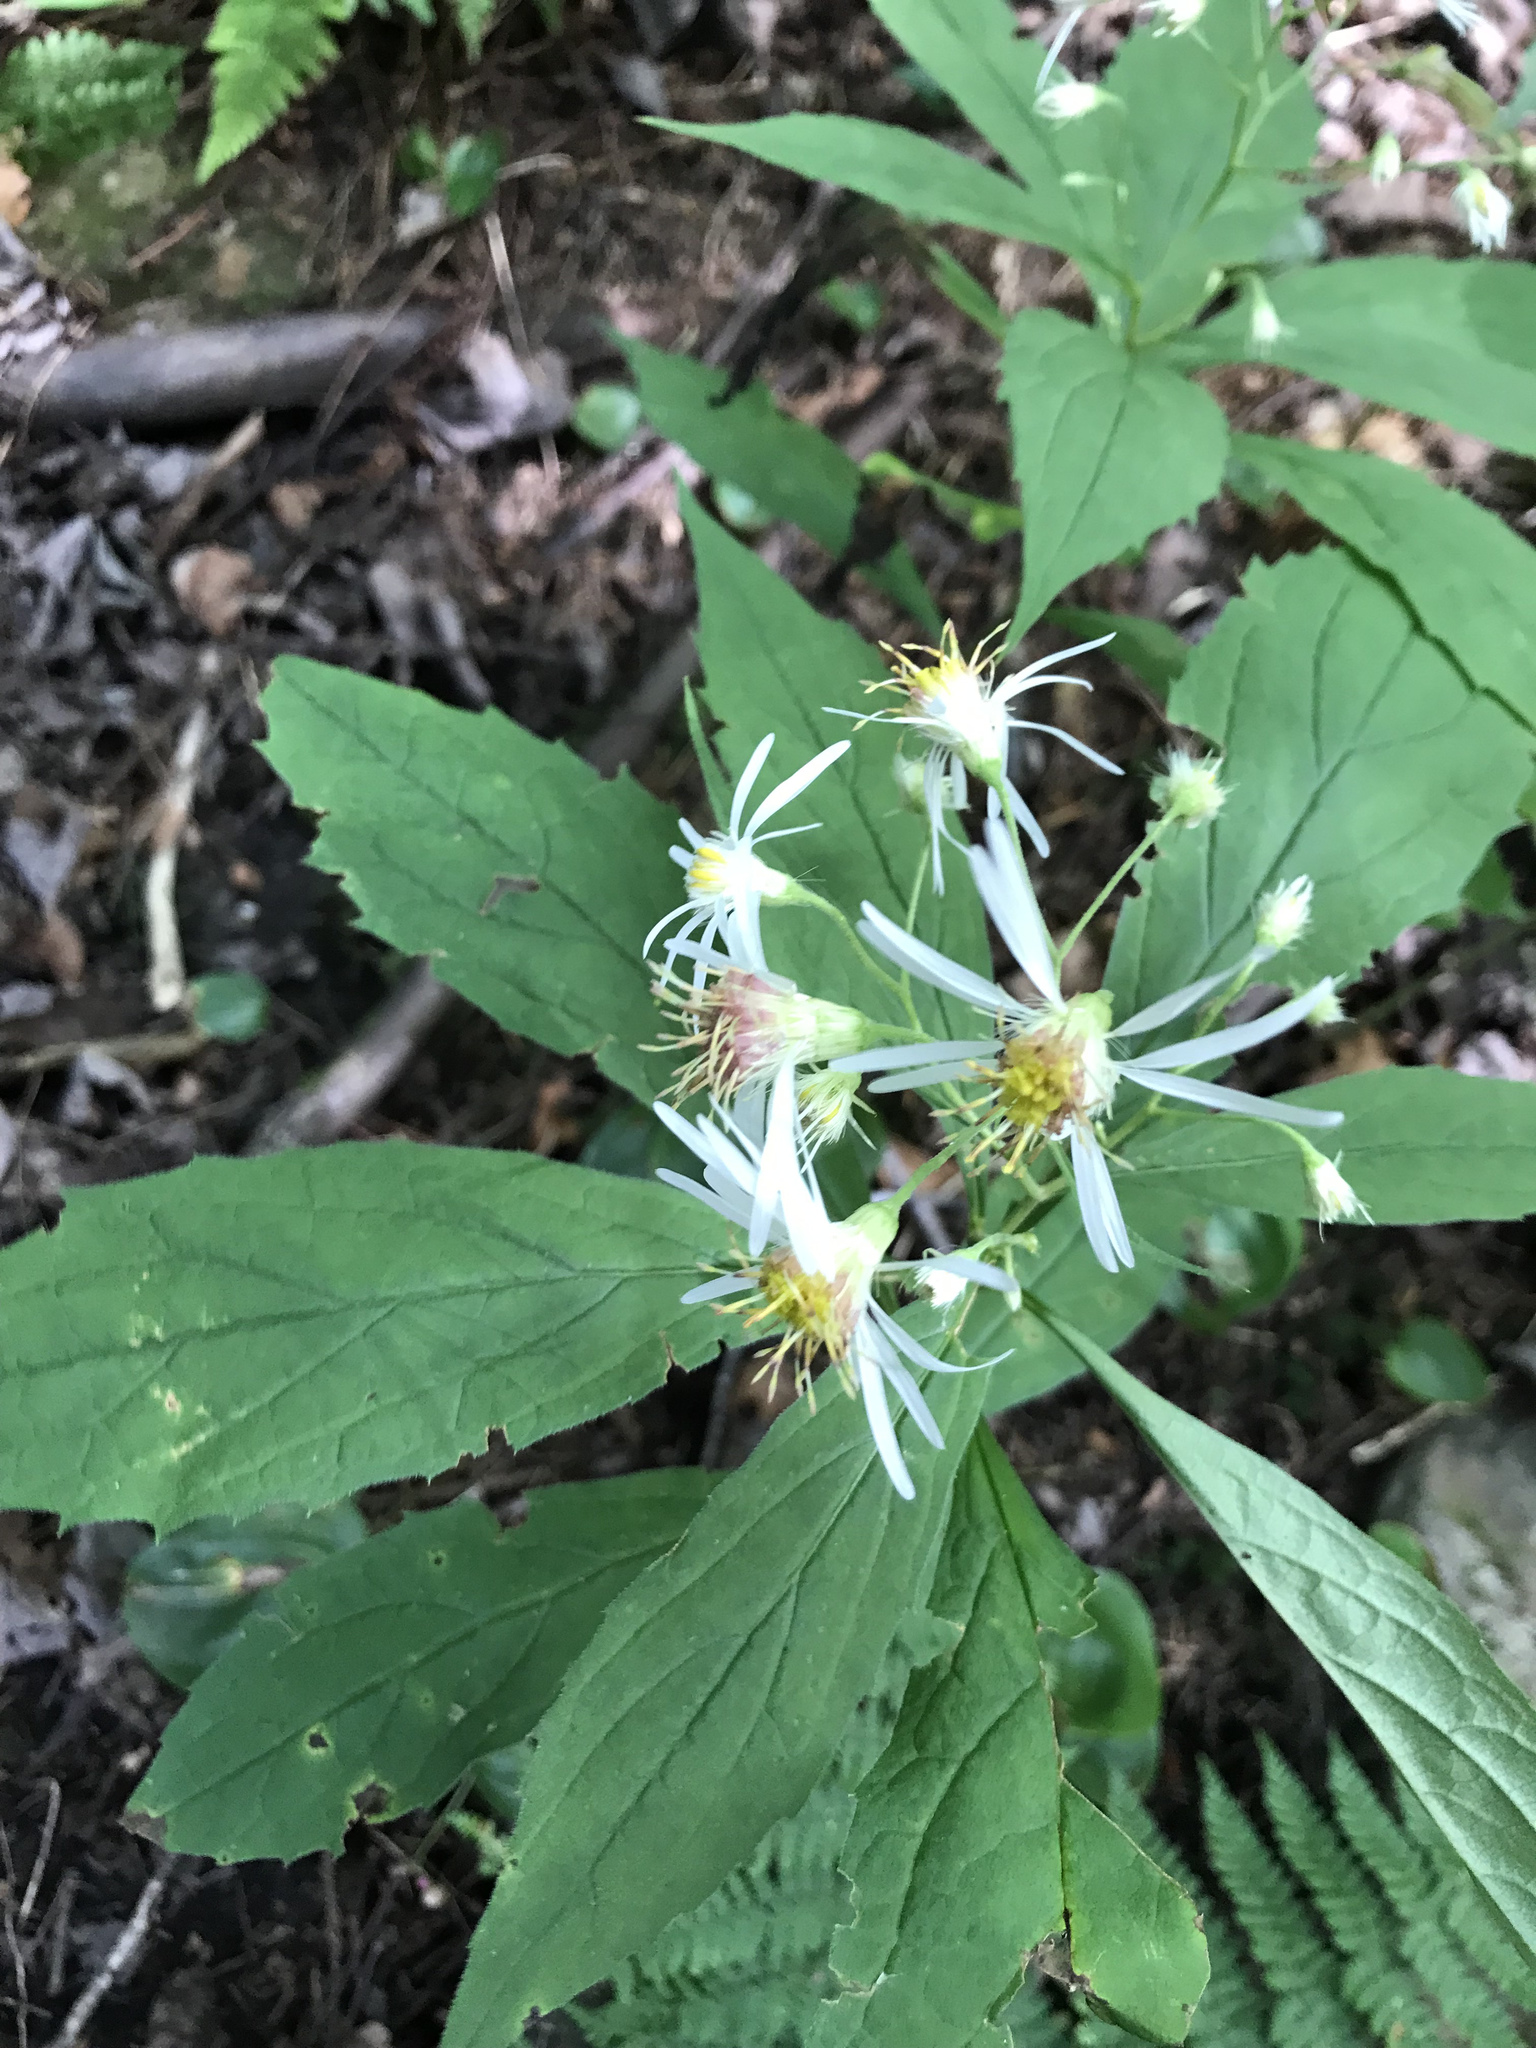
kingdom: Plantae
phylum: Tracheophyta
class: Magnoliopsida
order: Asterales
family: Asteraceae
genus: Oclemena
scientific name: Oclemena acuminata
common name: Mountain aster
